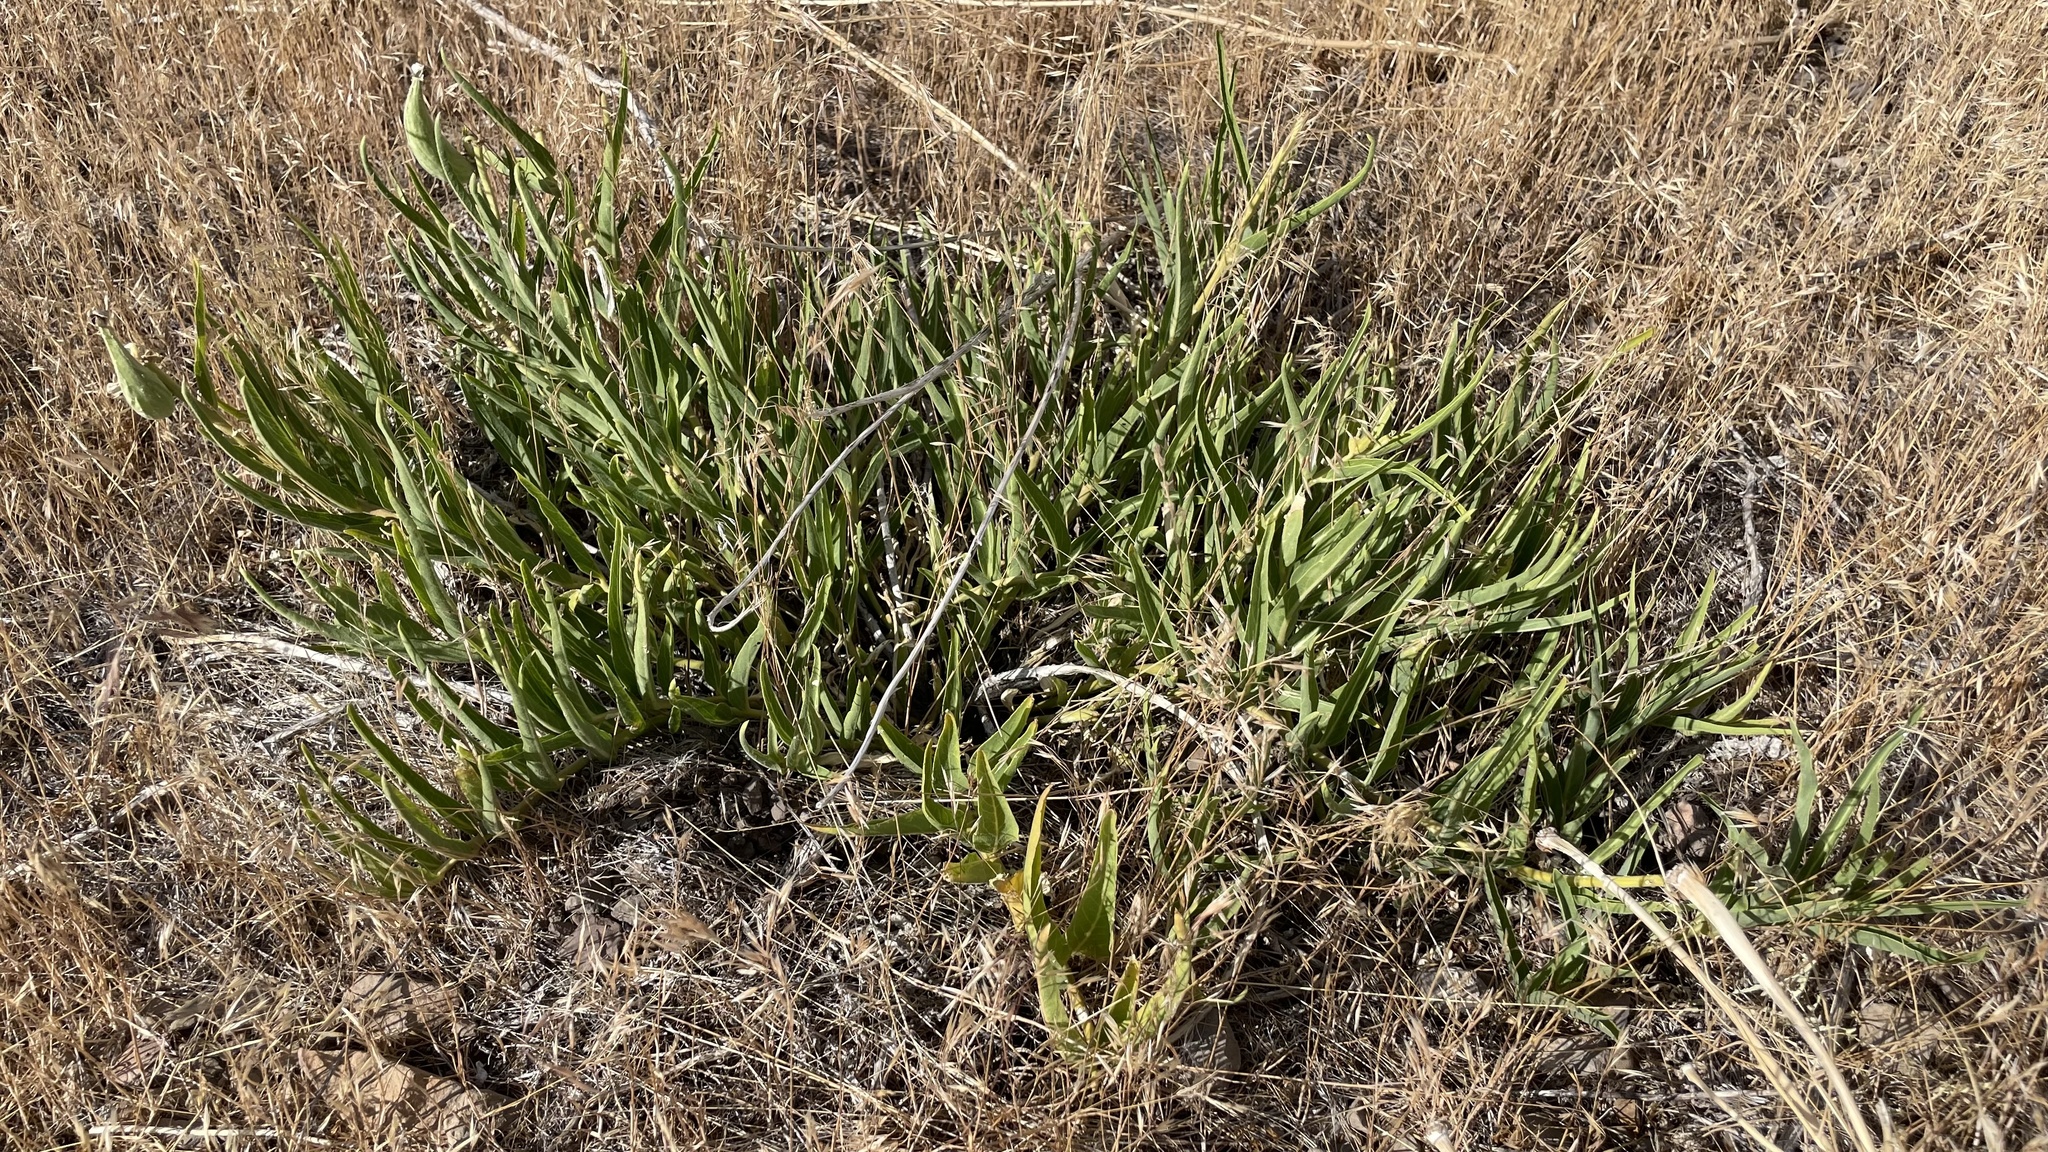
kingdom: Plantae
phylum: Tracheophyta
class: Magnoliopsida
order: Gentianales
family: Apocynaceae
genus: Asclepias
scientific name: Asclepias asperula
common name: Antelope horns
